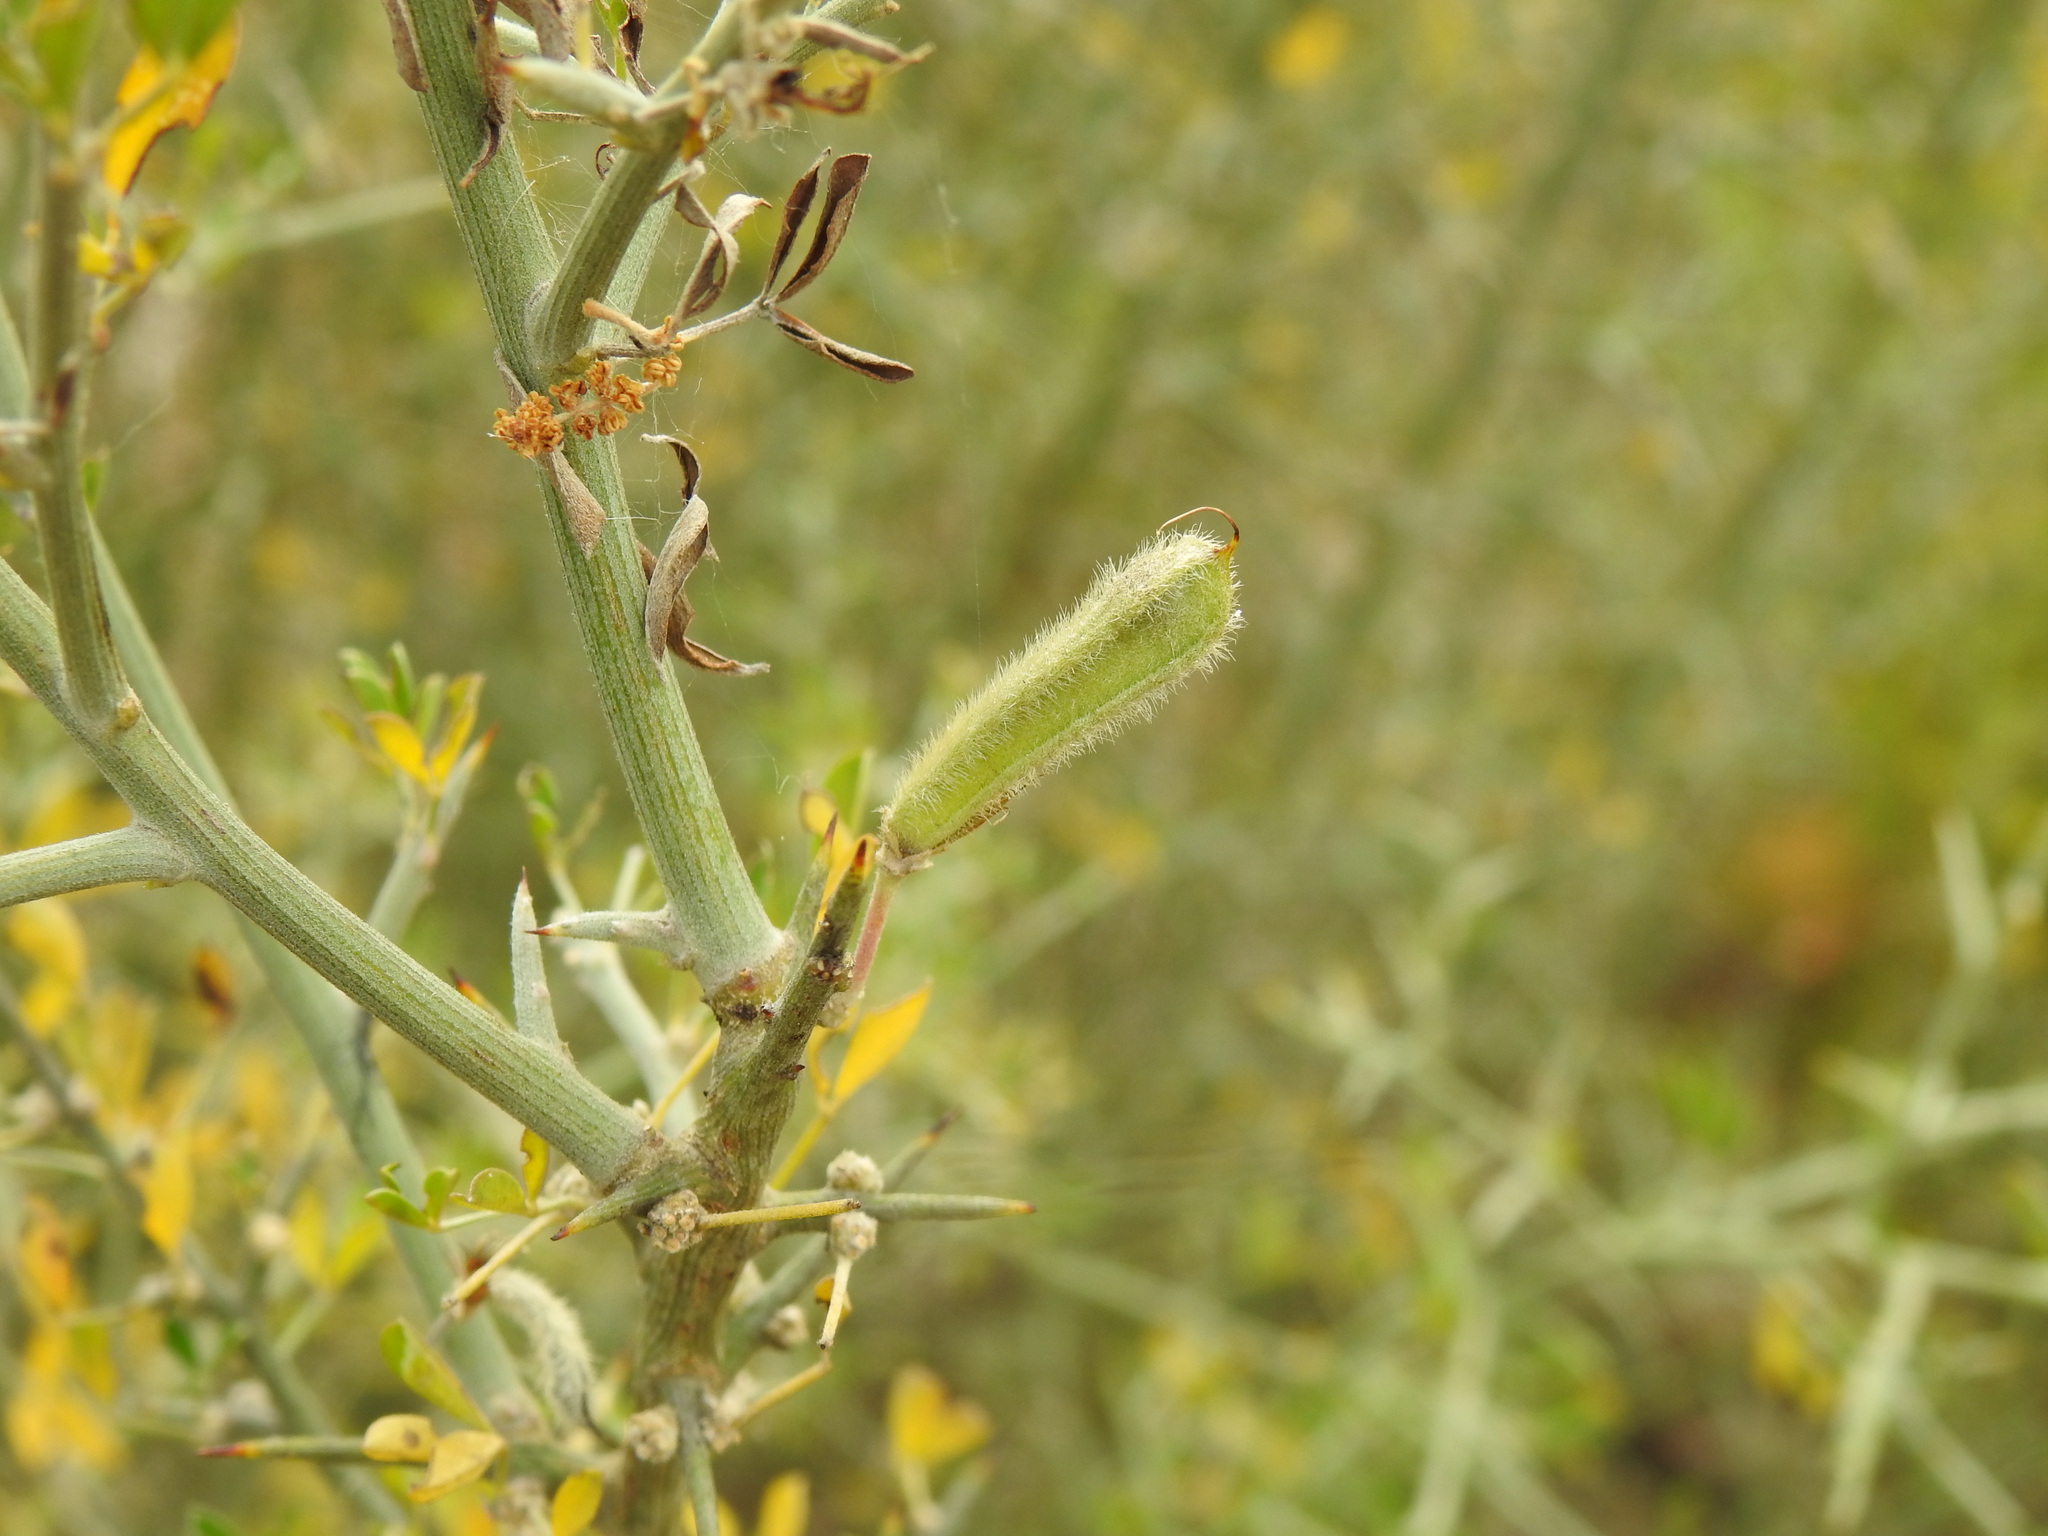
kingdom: Plantae
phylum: Tracheophyta
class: Magnoliopsida
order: Fabales
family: Fabaceae
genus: Calicotome
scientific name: Calicotome villosa
